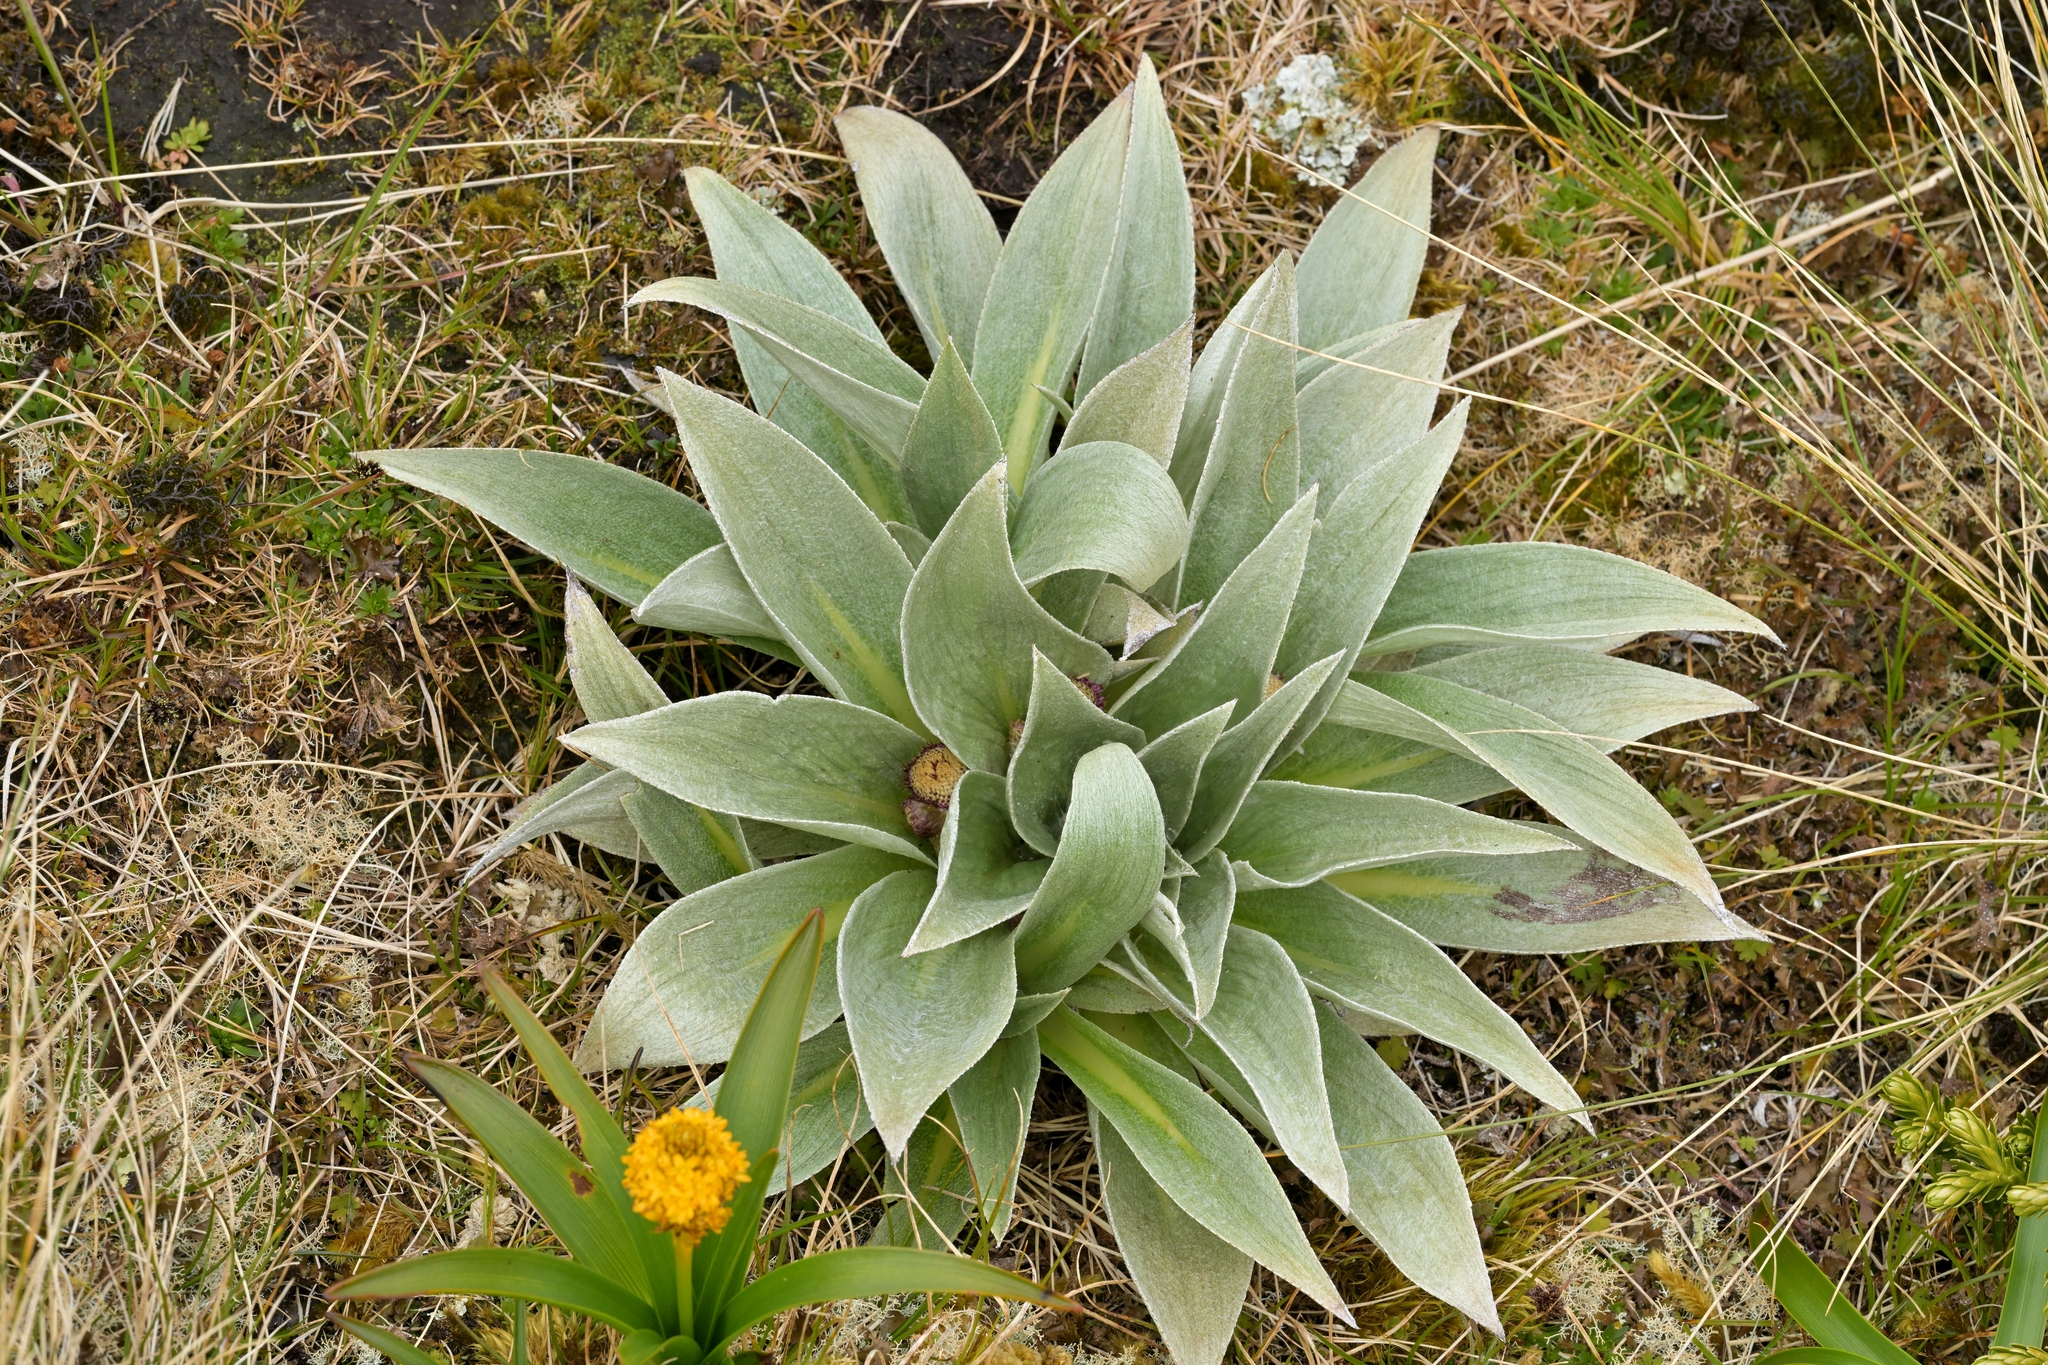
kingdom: Plantae
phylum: Tracheophyta
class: Magnoliopsida
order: Asterales
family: Asteraceae
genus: Pleurophyllum
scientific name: Pleurophyllum hookeri
